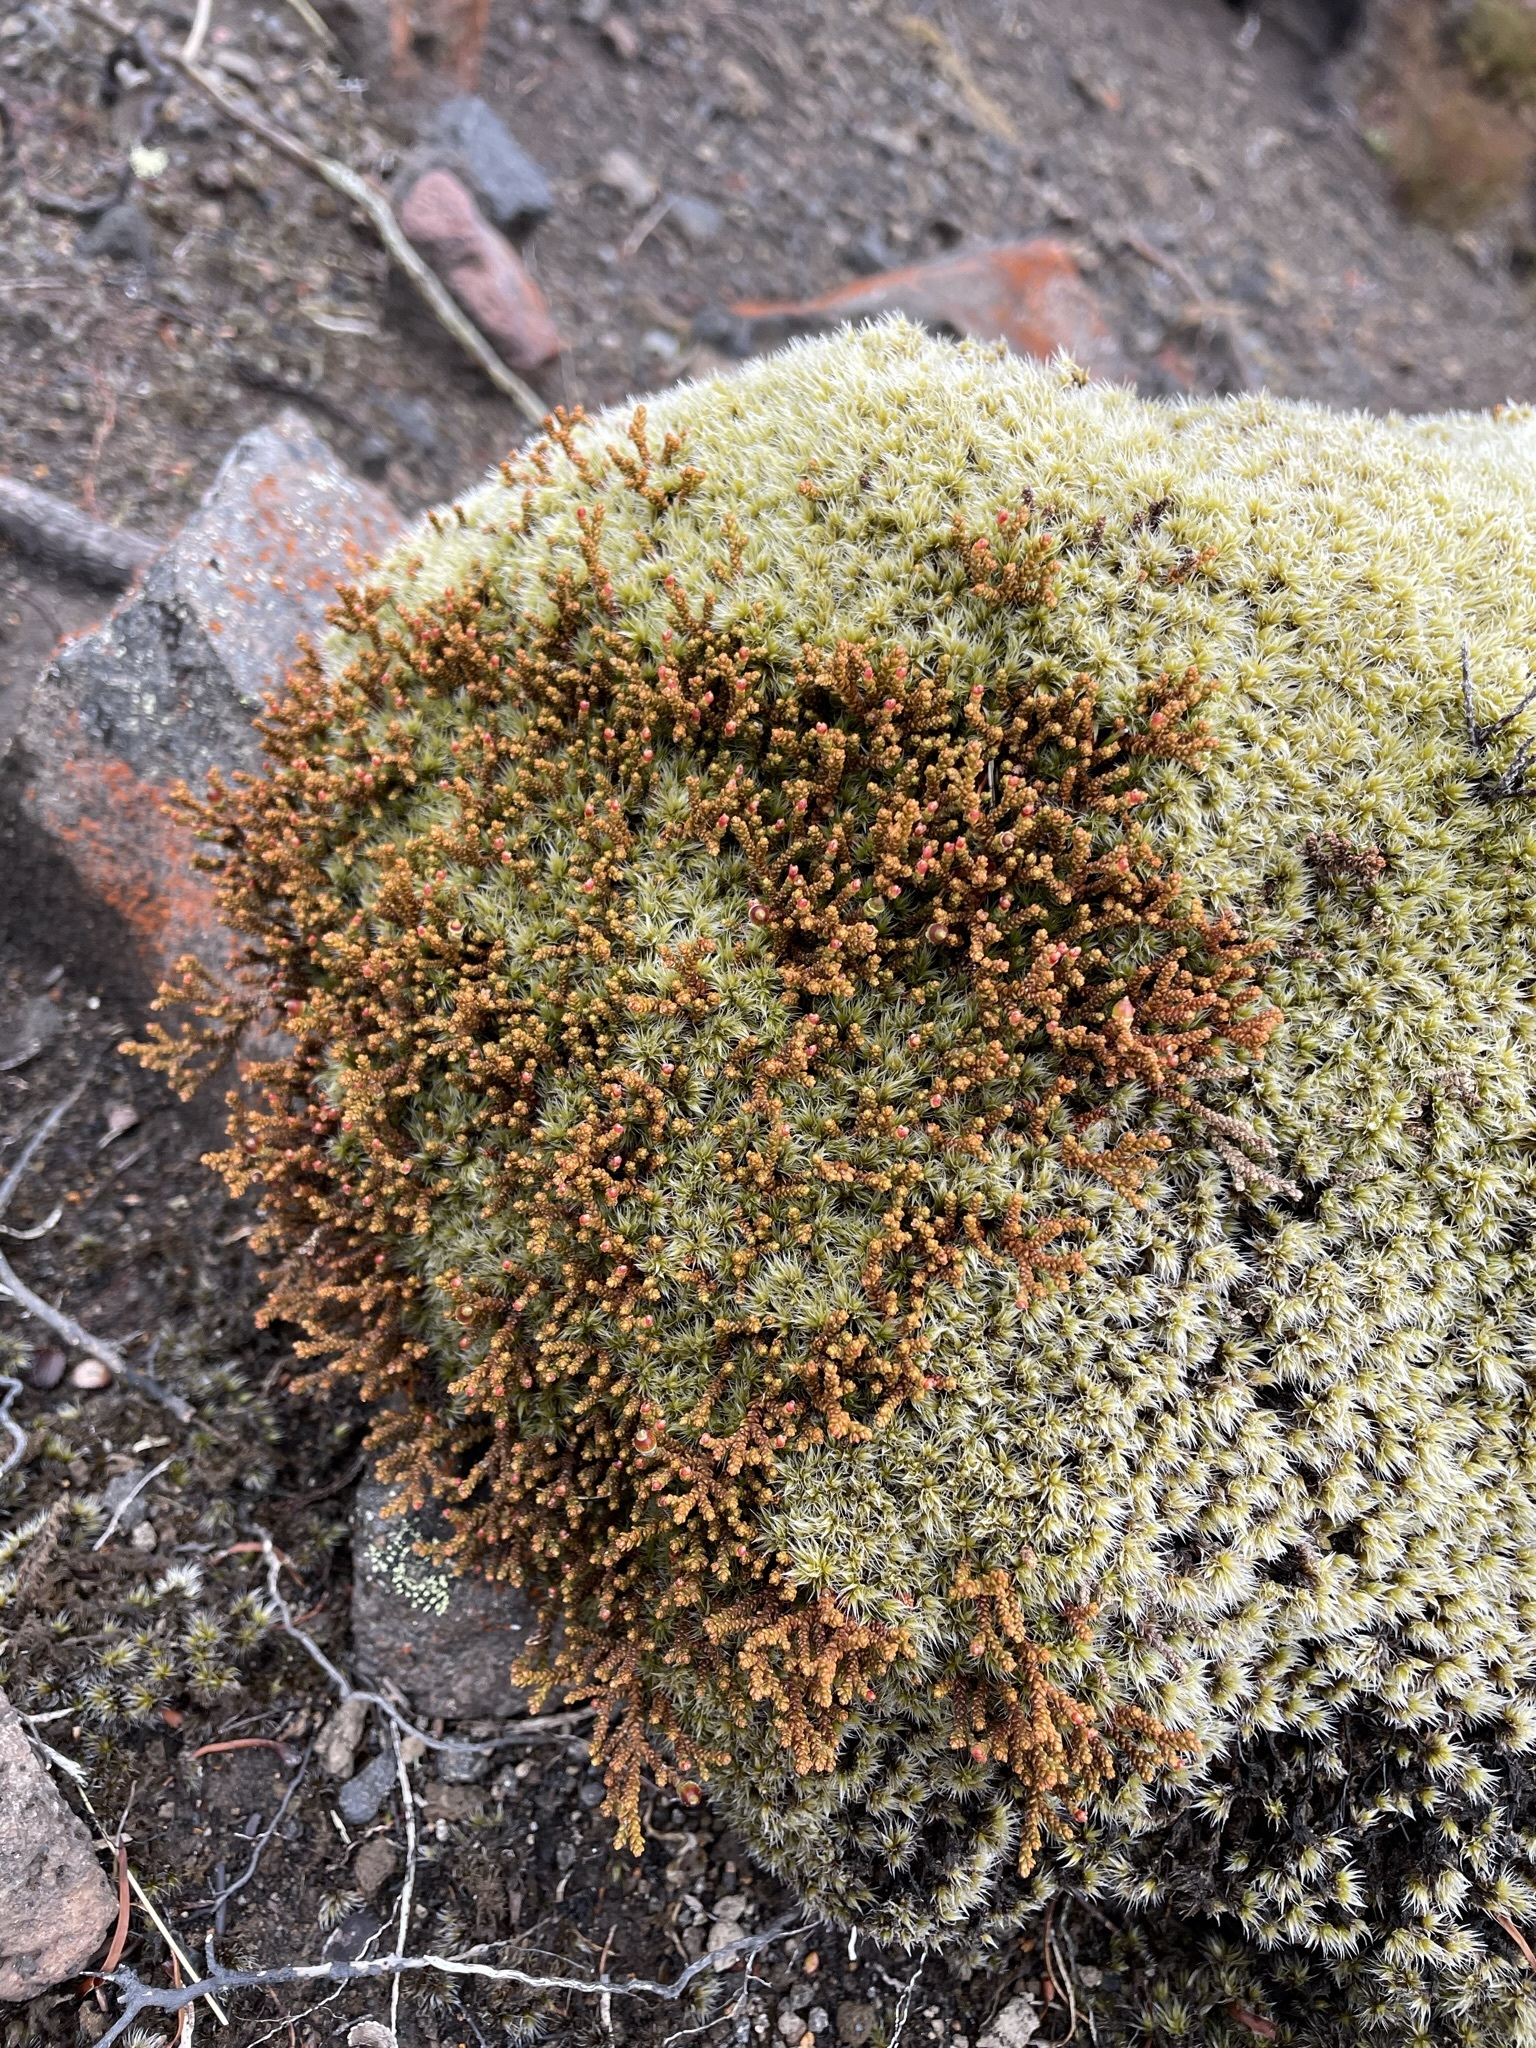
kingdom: Plantae
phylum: Tracheophyta
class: Pinopsida
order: Pinales
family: Podocarpaceae
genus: Lepidothamnus
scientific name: Lepidothamnus laxifolius
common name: Pygmy pine
